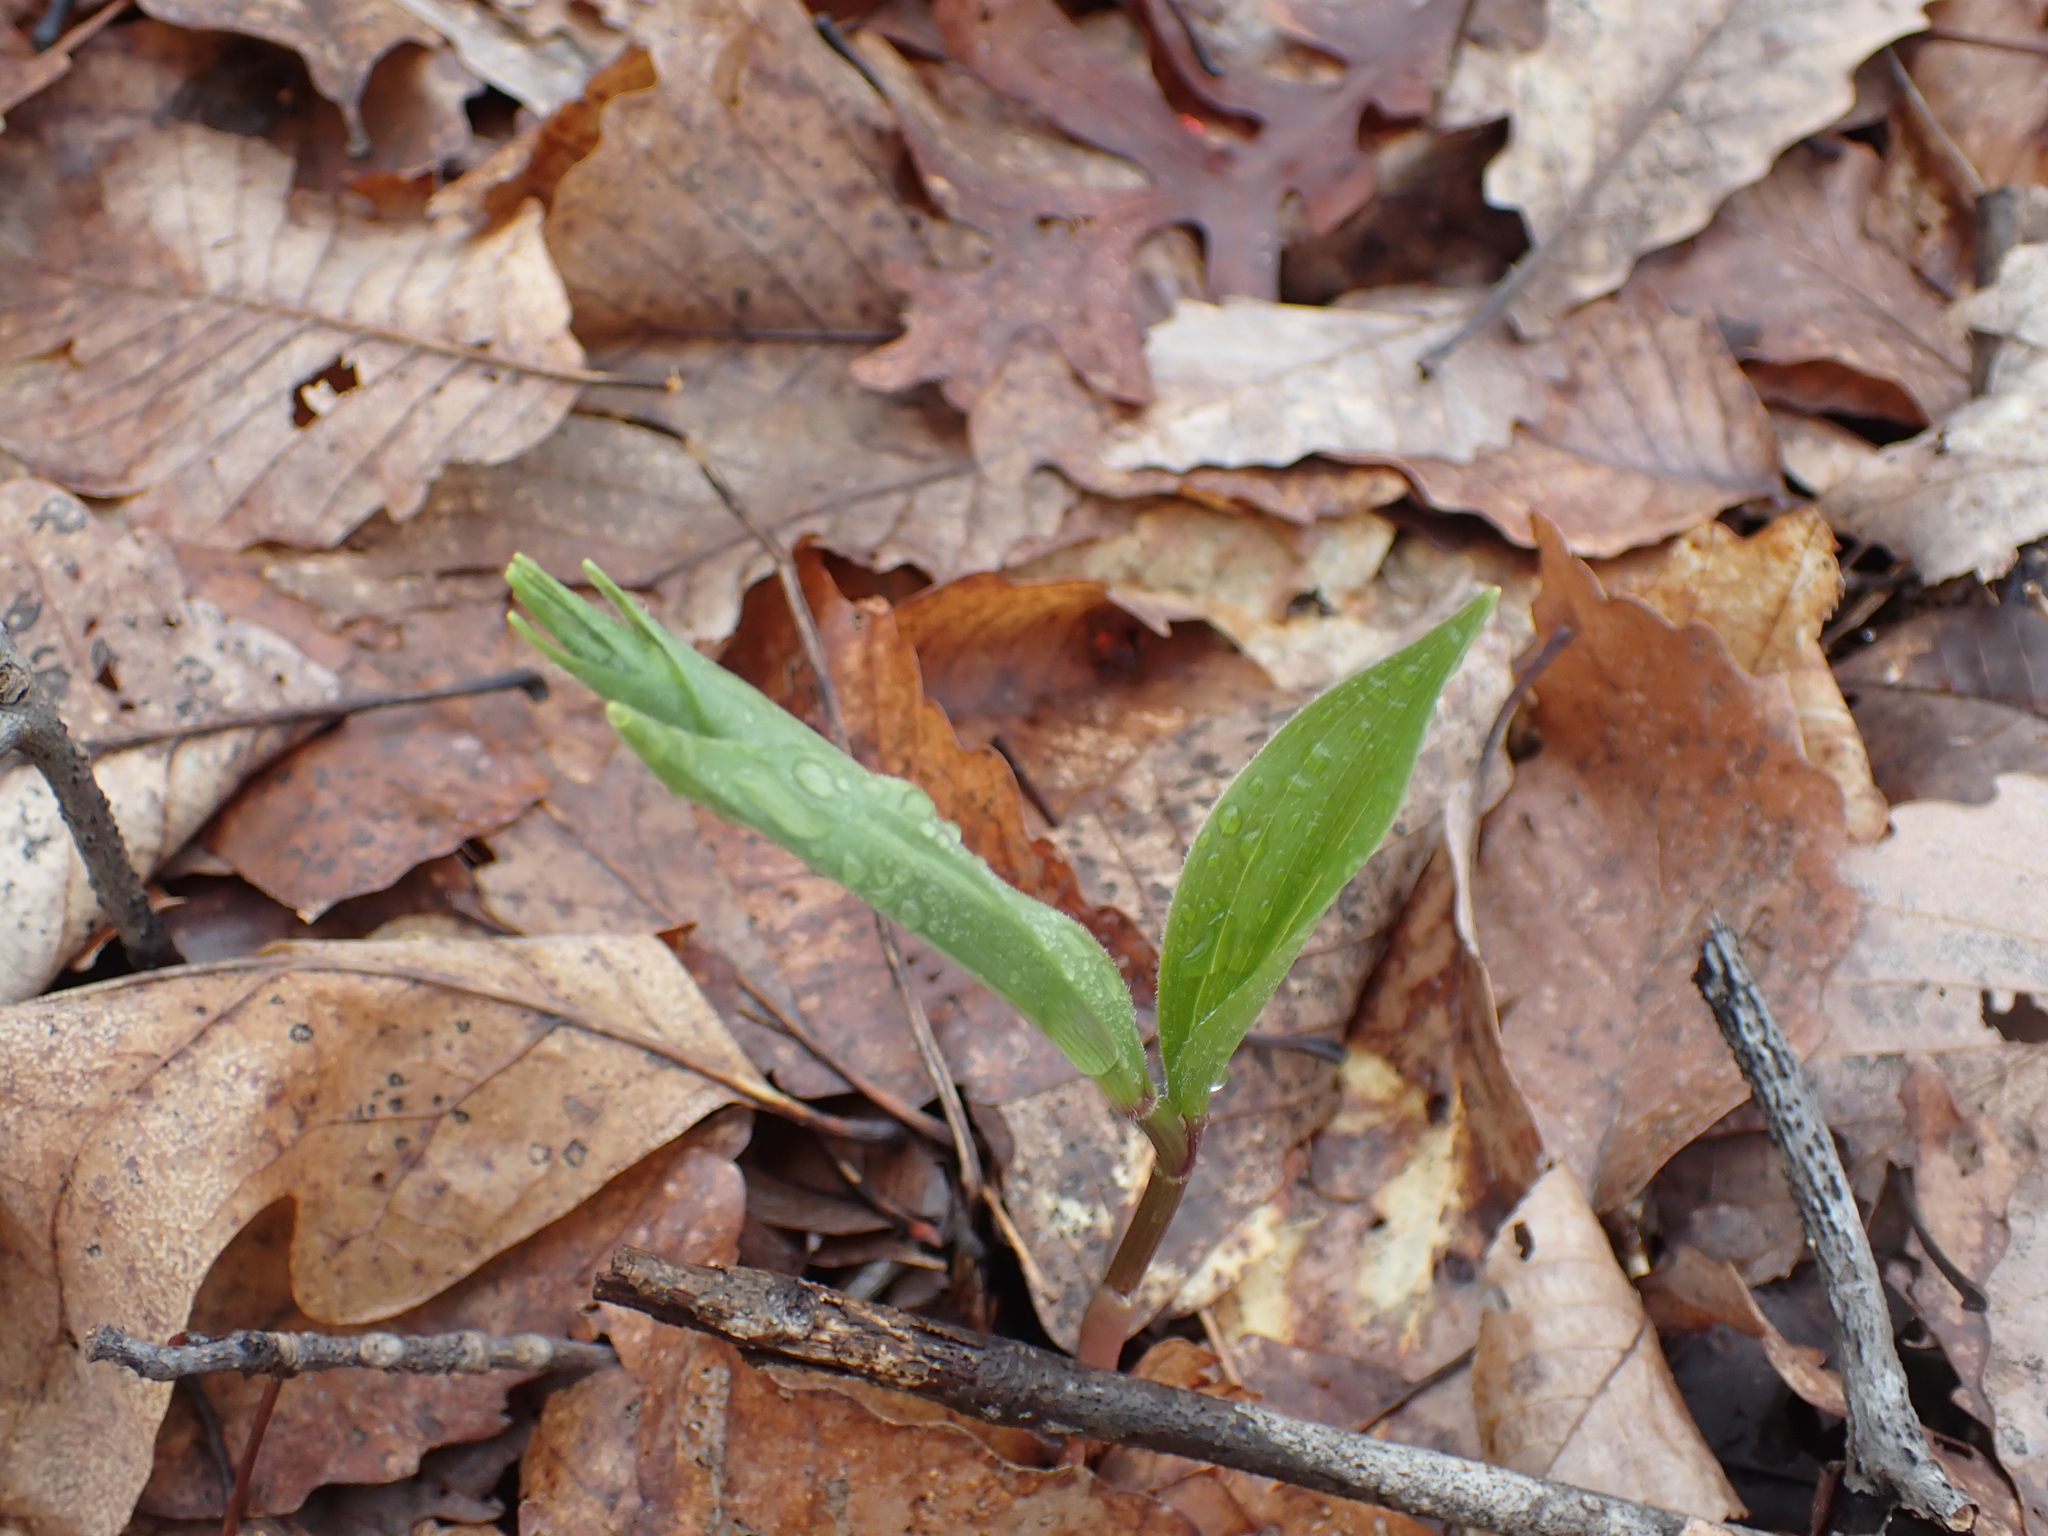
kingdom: Plantae
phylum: Tracheophyta
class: Liliopsida
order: Asparagales
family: Asparagaceae
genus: Maianthemum
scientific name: Maianthemum racemosum
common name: False spikenard
